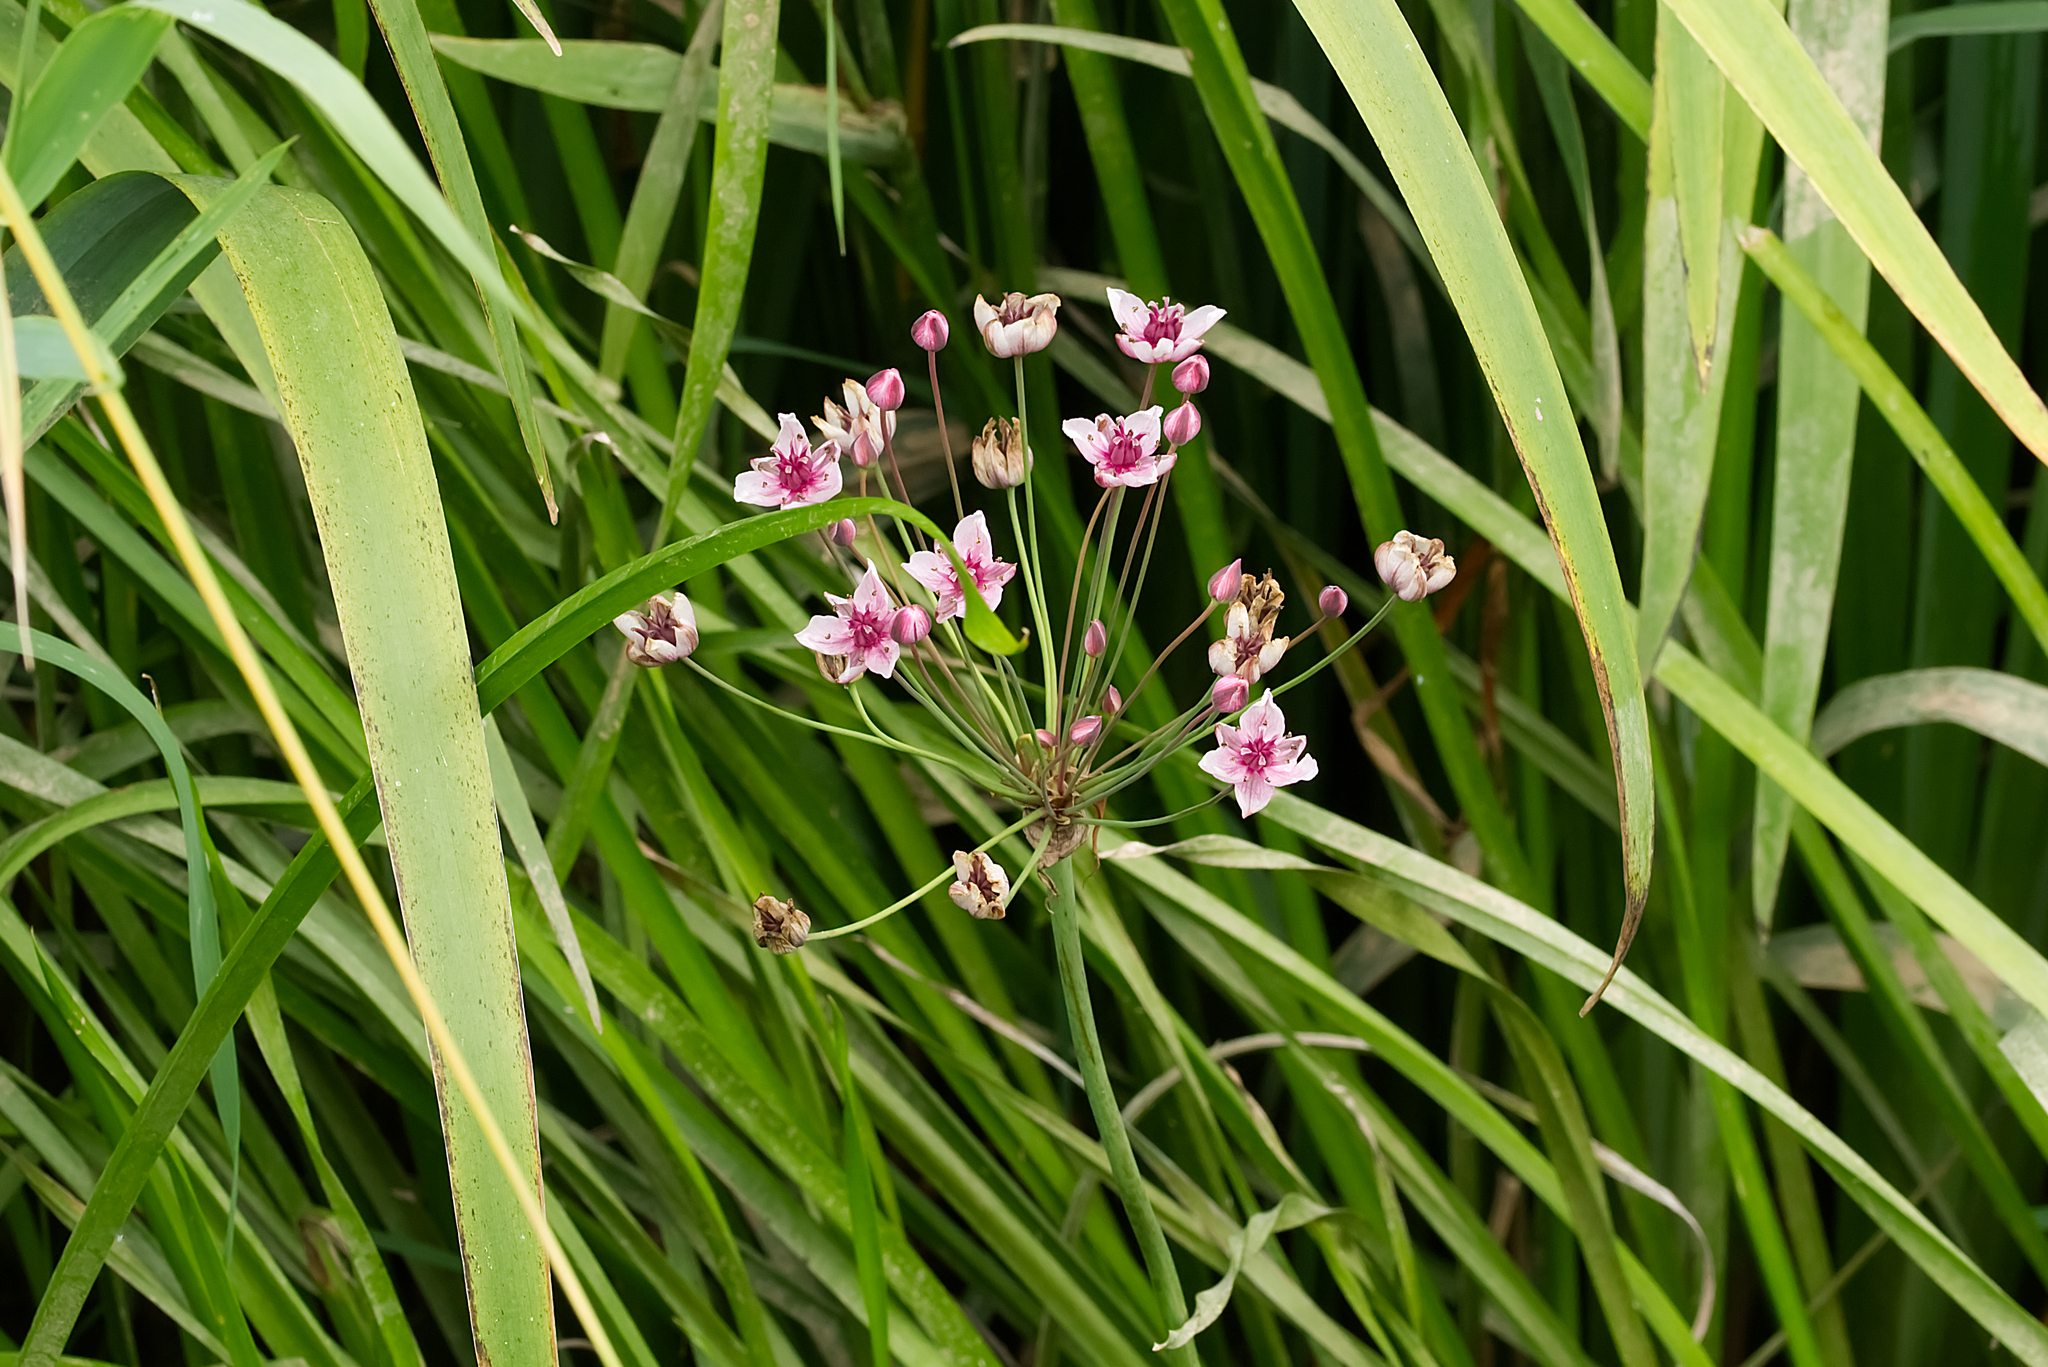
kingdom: Plantae
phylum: Tracheophyta
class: Liliopsida
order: Alismatales
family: Butomaceae
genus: Butomus
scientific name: Butomus umbellatus
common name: Flowering-rush
